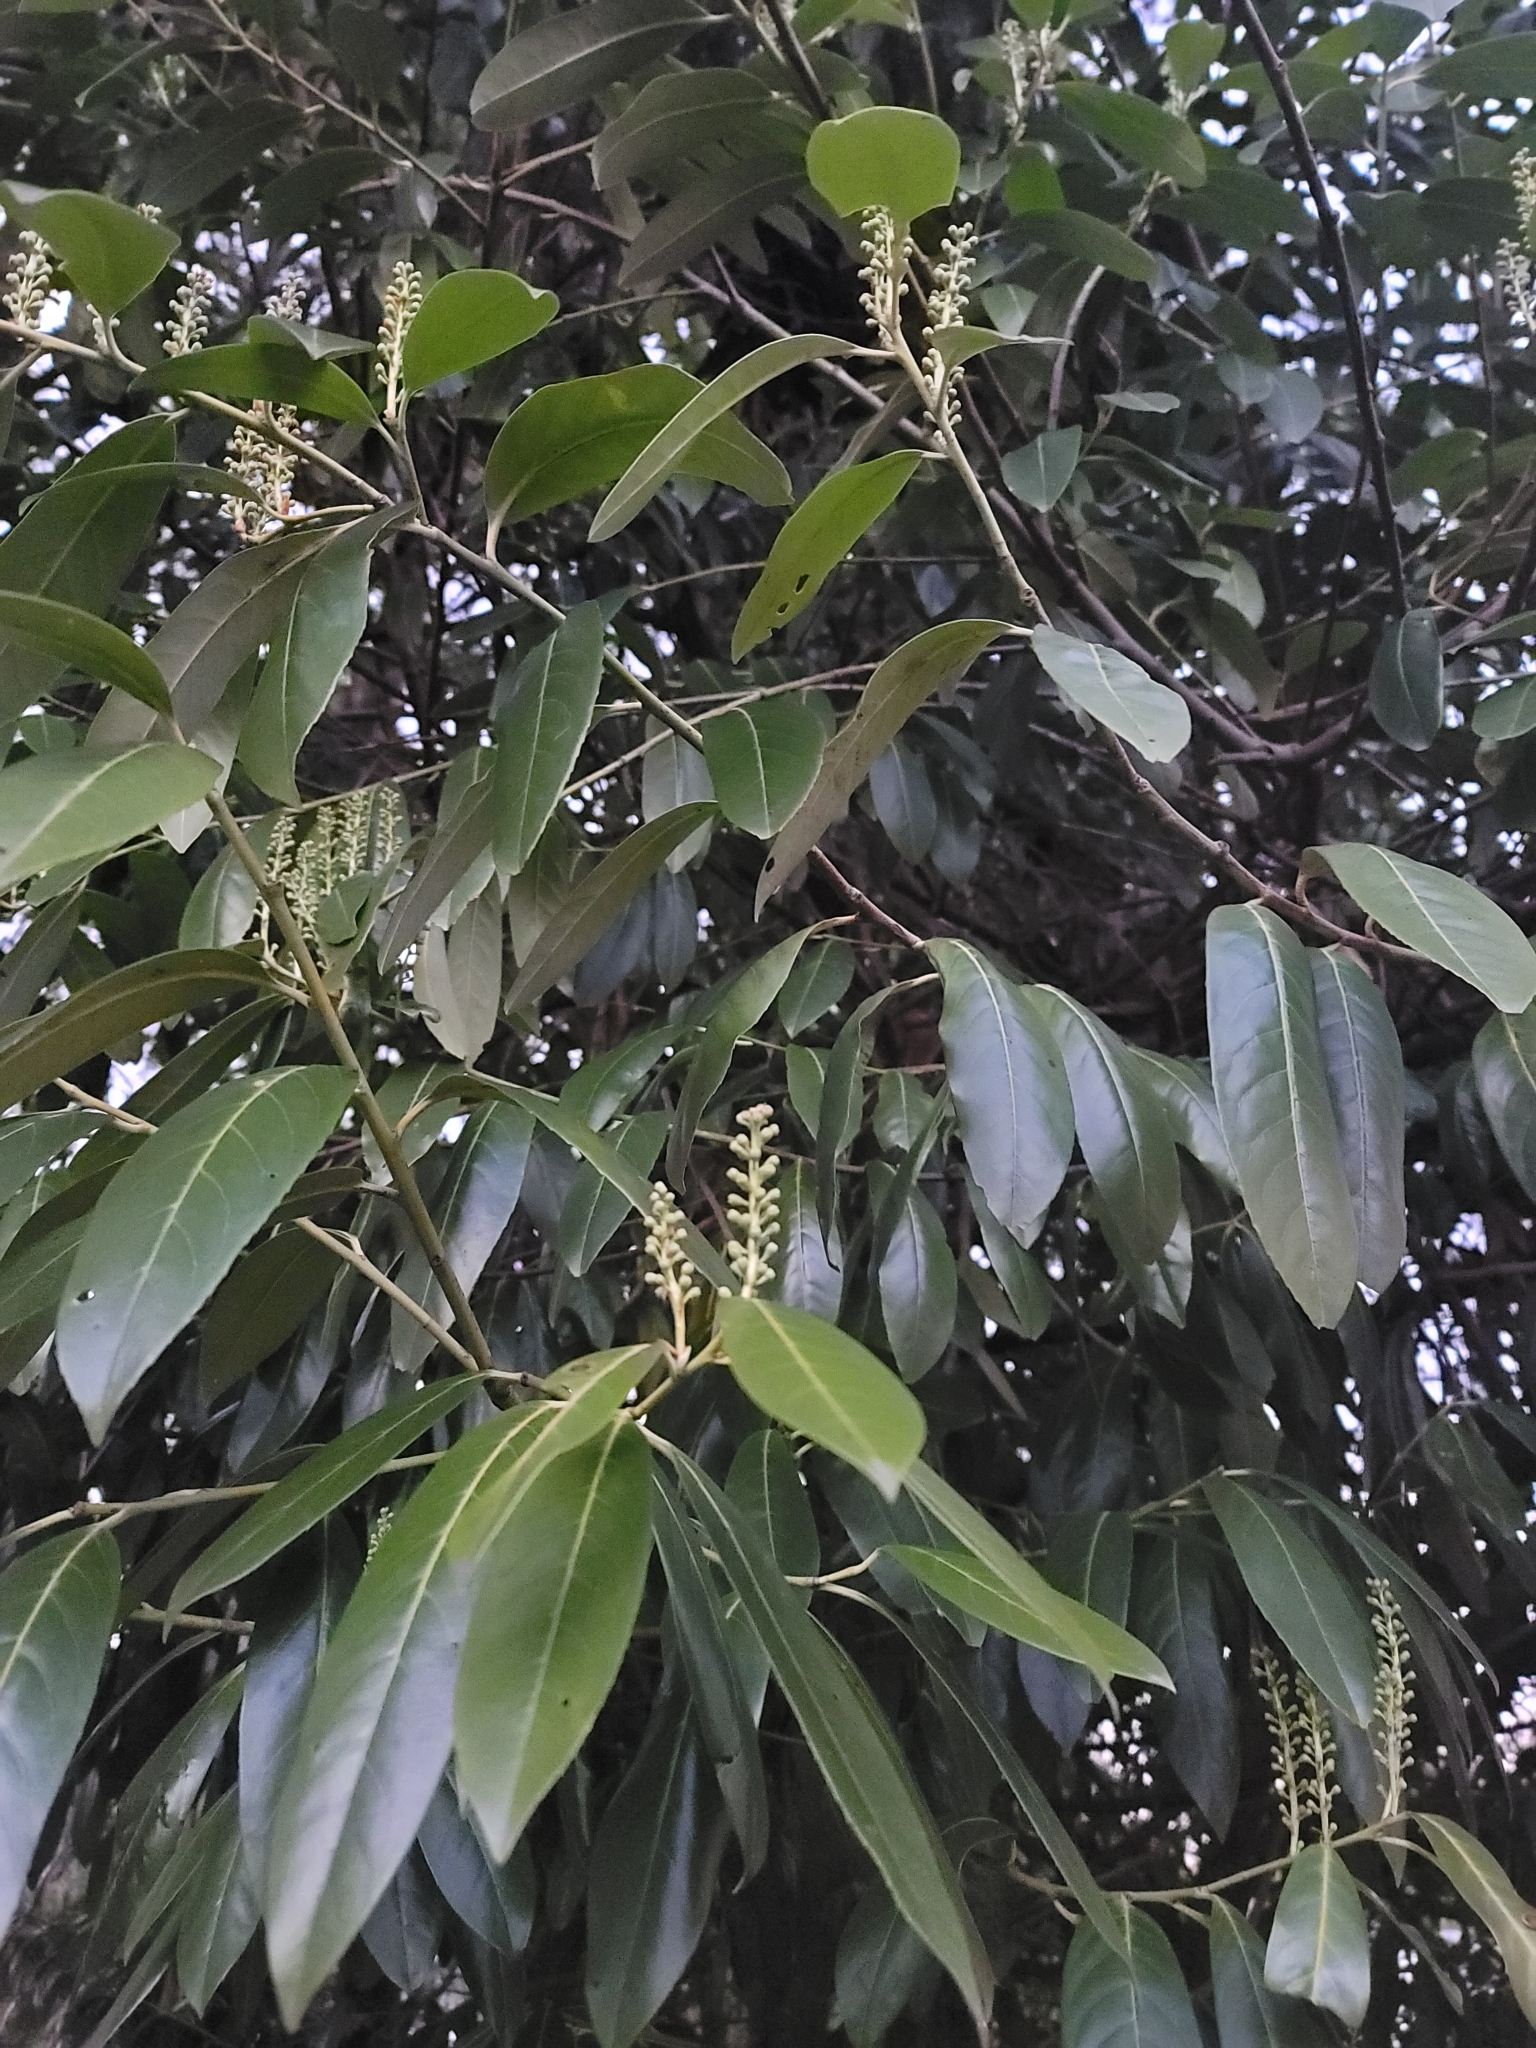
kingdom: Plantae
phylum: Tracheophyta
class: Magnoliopsida
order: Rosales
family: Rosaceae
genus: Prunus
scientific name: Prunus laurocerasus
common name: Cherry laurel
